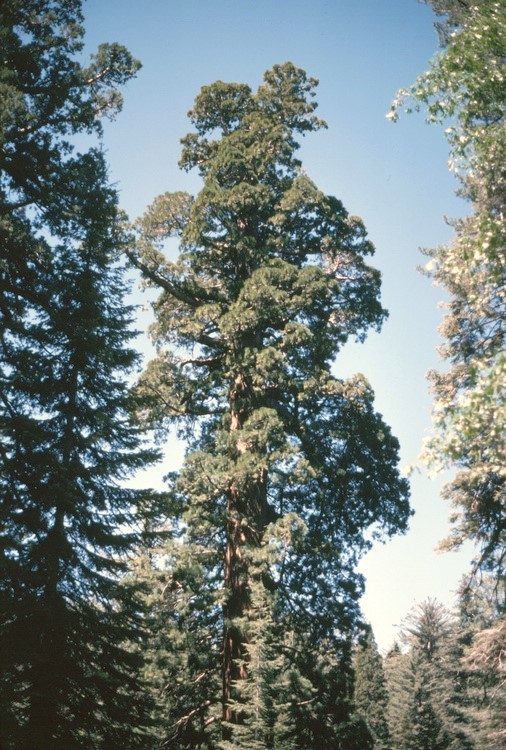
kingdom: Plantae
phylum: Tracheophyta
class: Pinopsida
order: Pinales
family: Cupressaceae
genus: Sequoiadendron
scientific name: Sequoiadendron giganteum
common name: Wellingtonia
